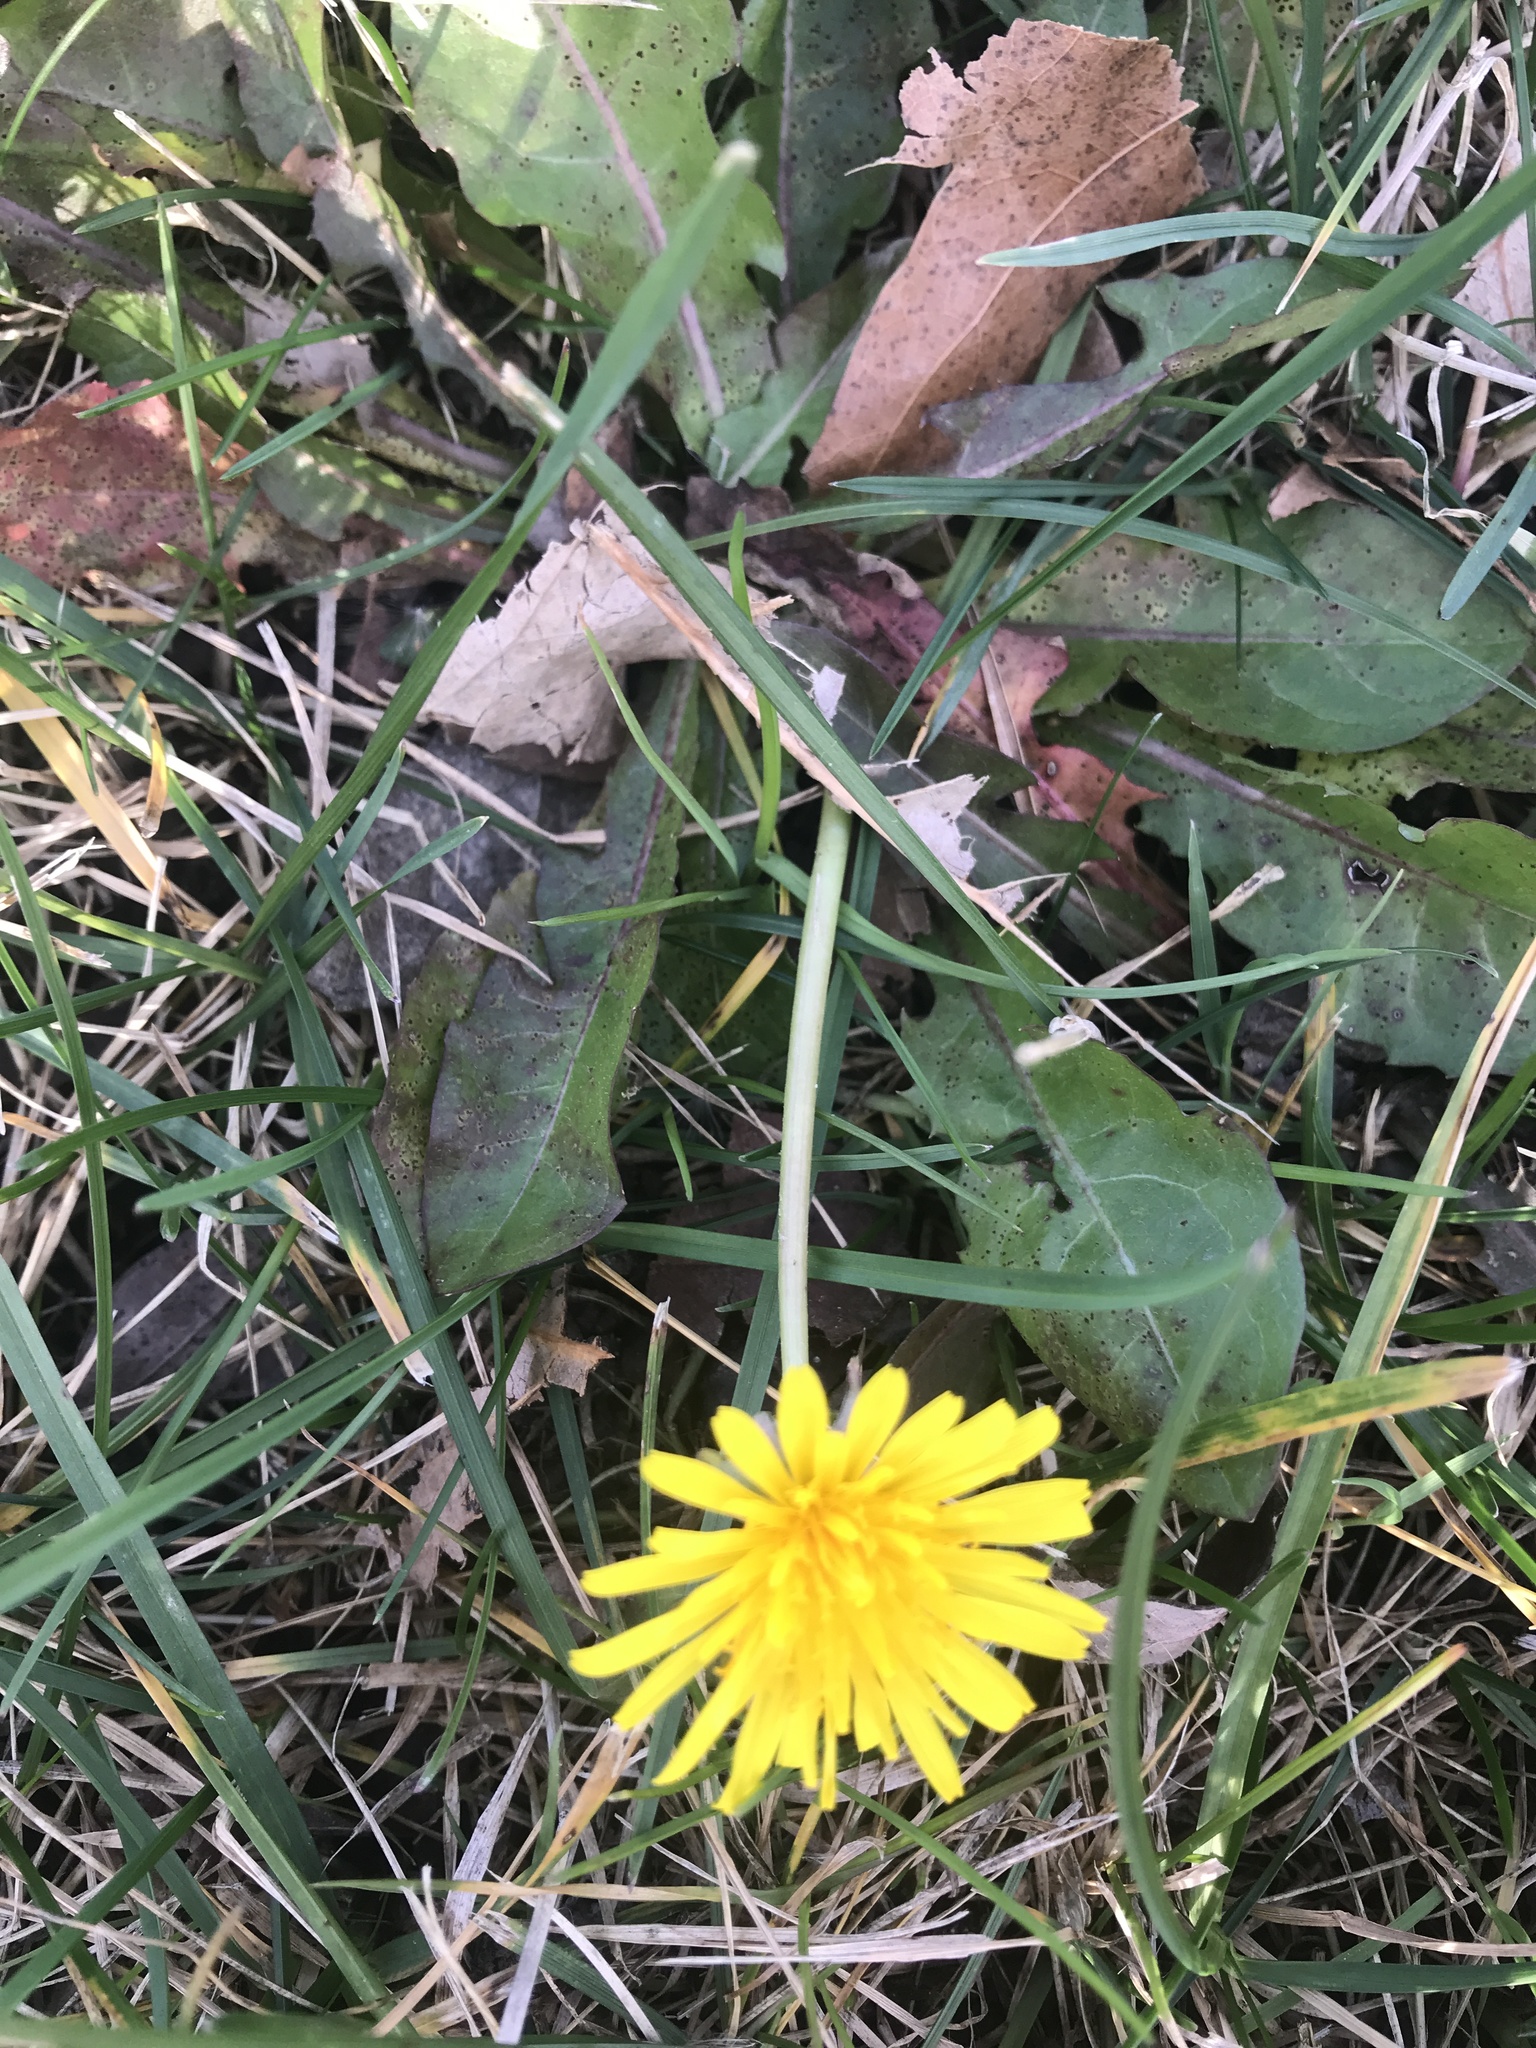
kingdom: Plantae
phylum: Tracheophyta
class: Magnoliopsida
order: Asterales
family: Asteraceae
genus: Taraxacum
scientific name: Taraxacum officinale
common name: Common dandelion
